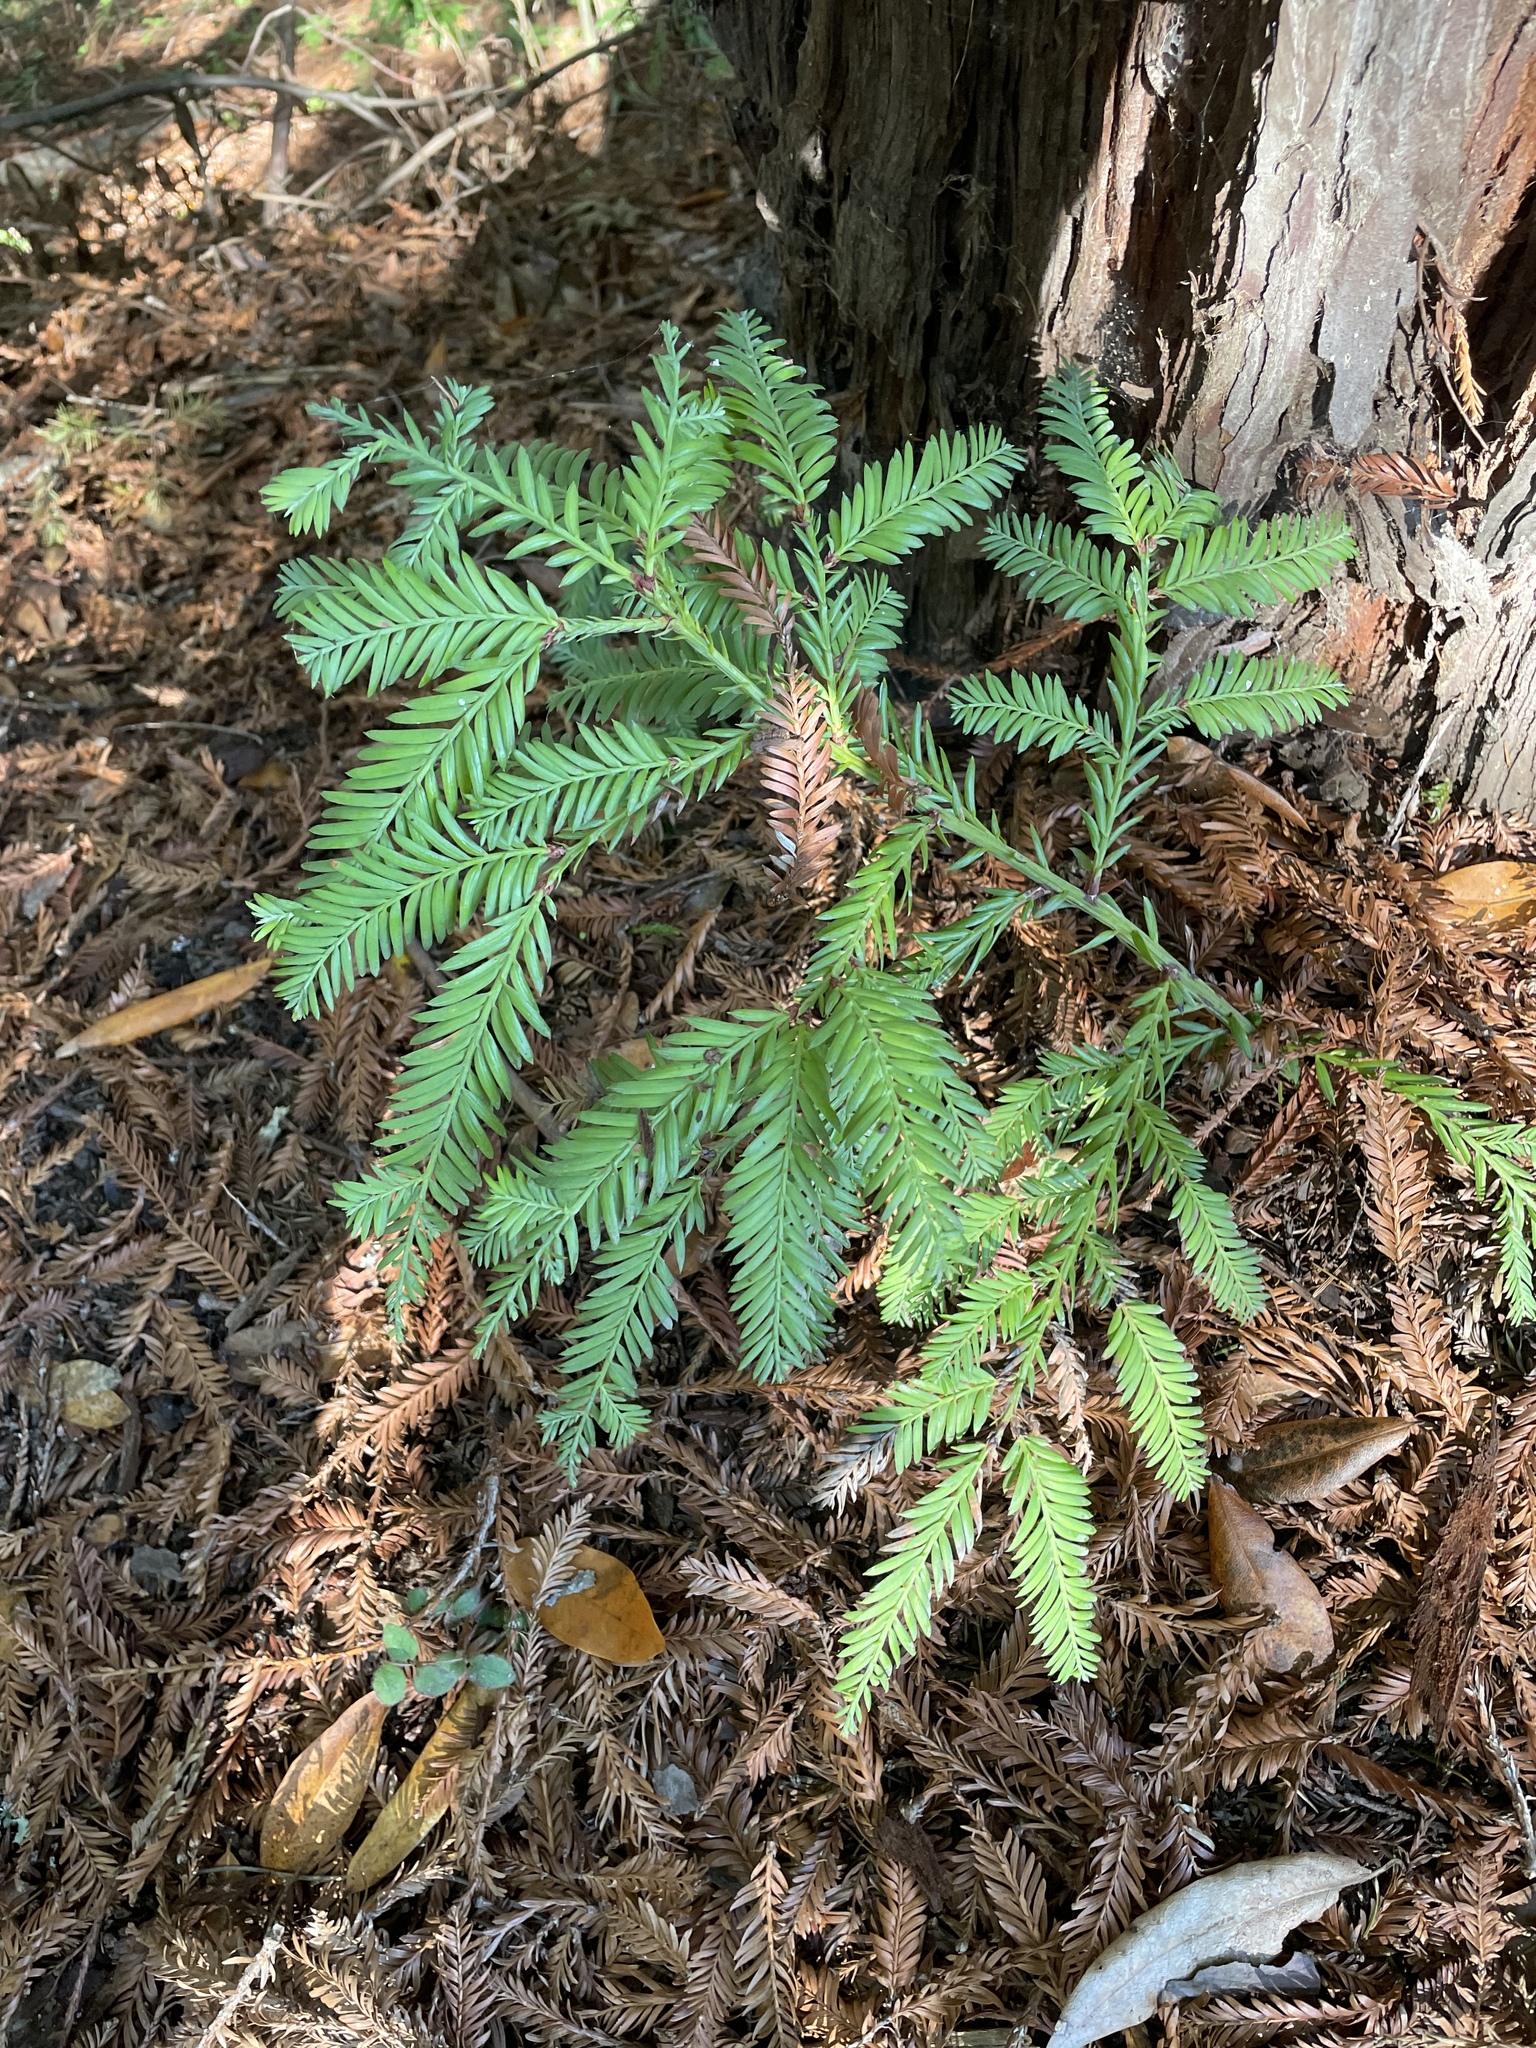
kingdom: Plantae
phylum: Tracheophyta
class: Pinopsida
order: Pinales
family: Cupressaceae
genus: Sequoia
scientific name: Sequoia sempervirens
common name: Coast redwood
